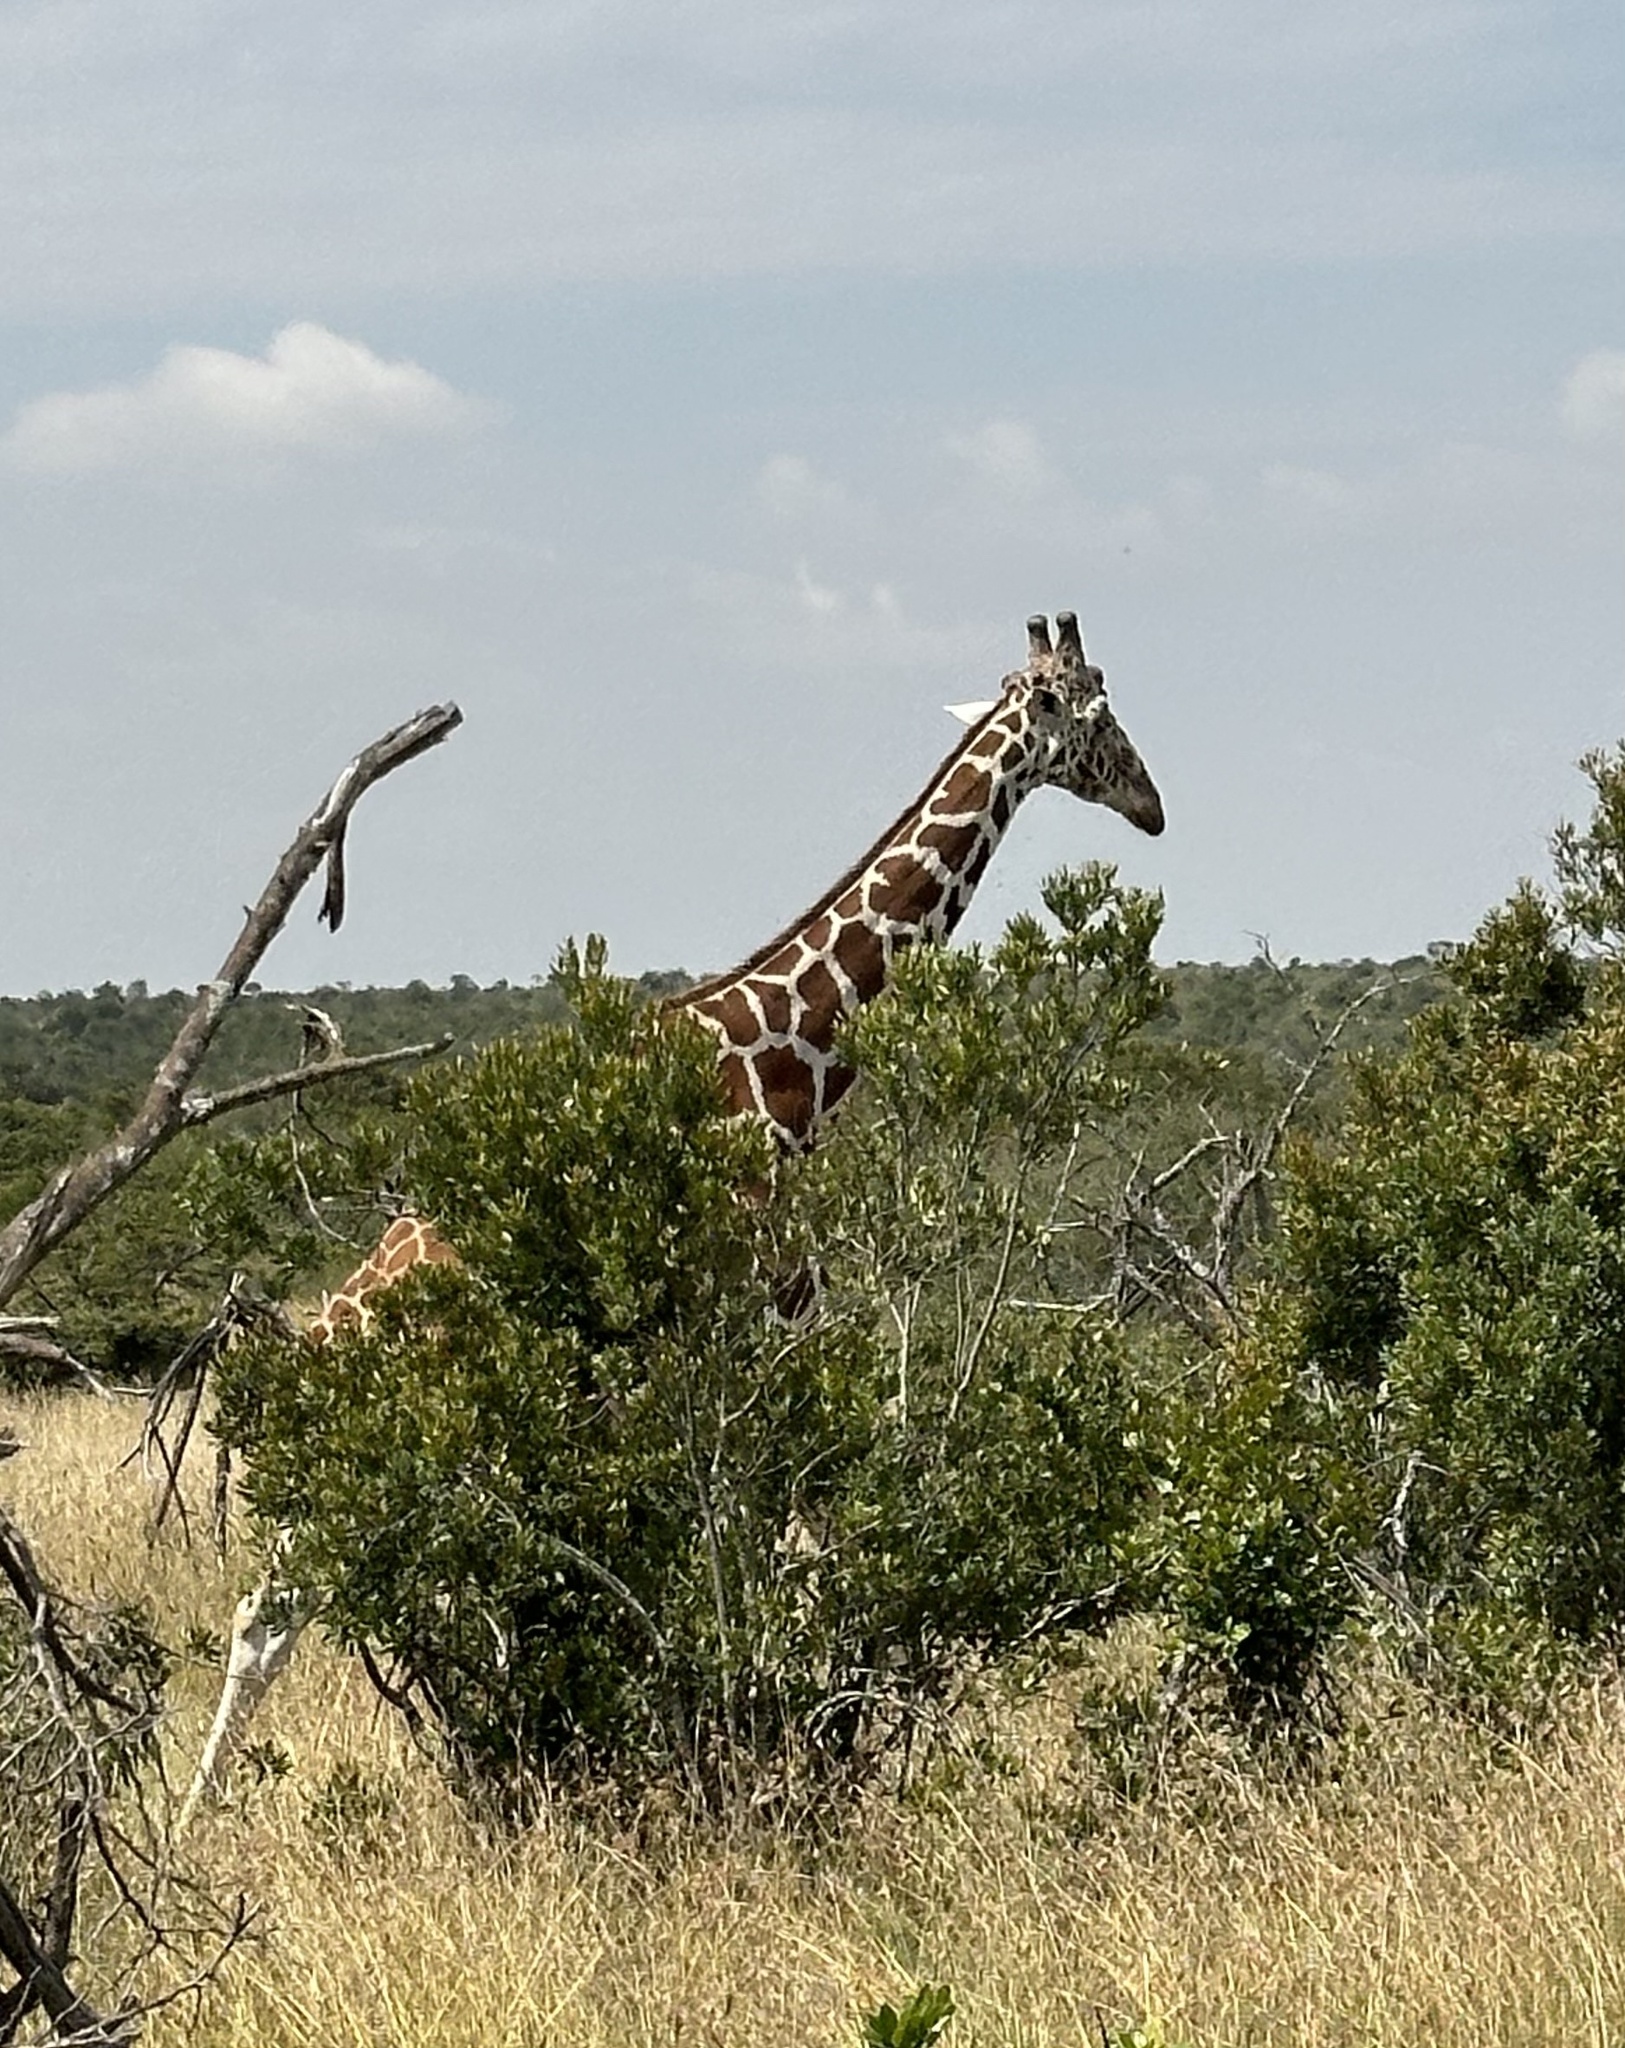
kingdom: Animalia
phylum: Chordata
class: Mammalia
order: Artiodactyla
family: Giraffidae
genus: Giraffa
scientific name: Giraffa reticulata
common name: Reticulated giraffe
